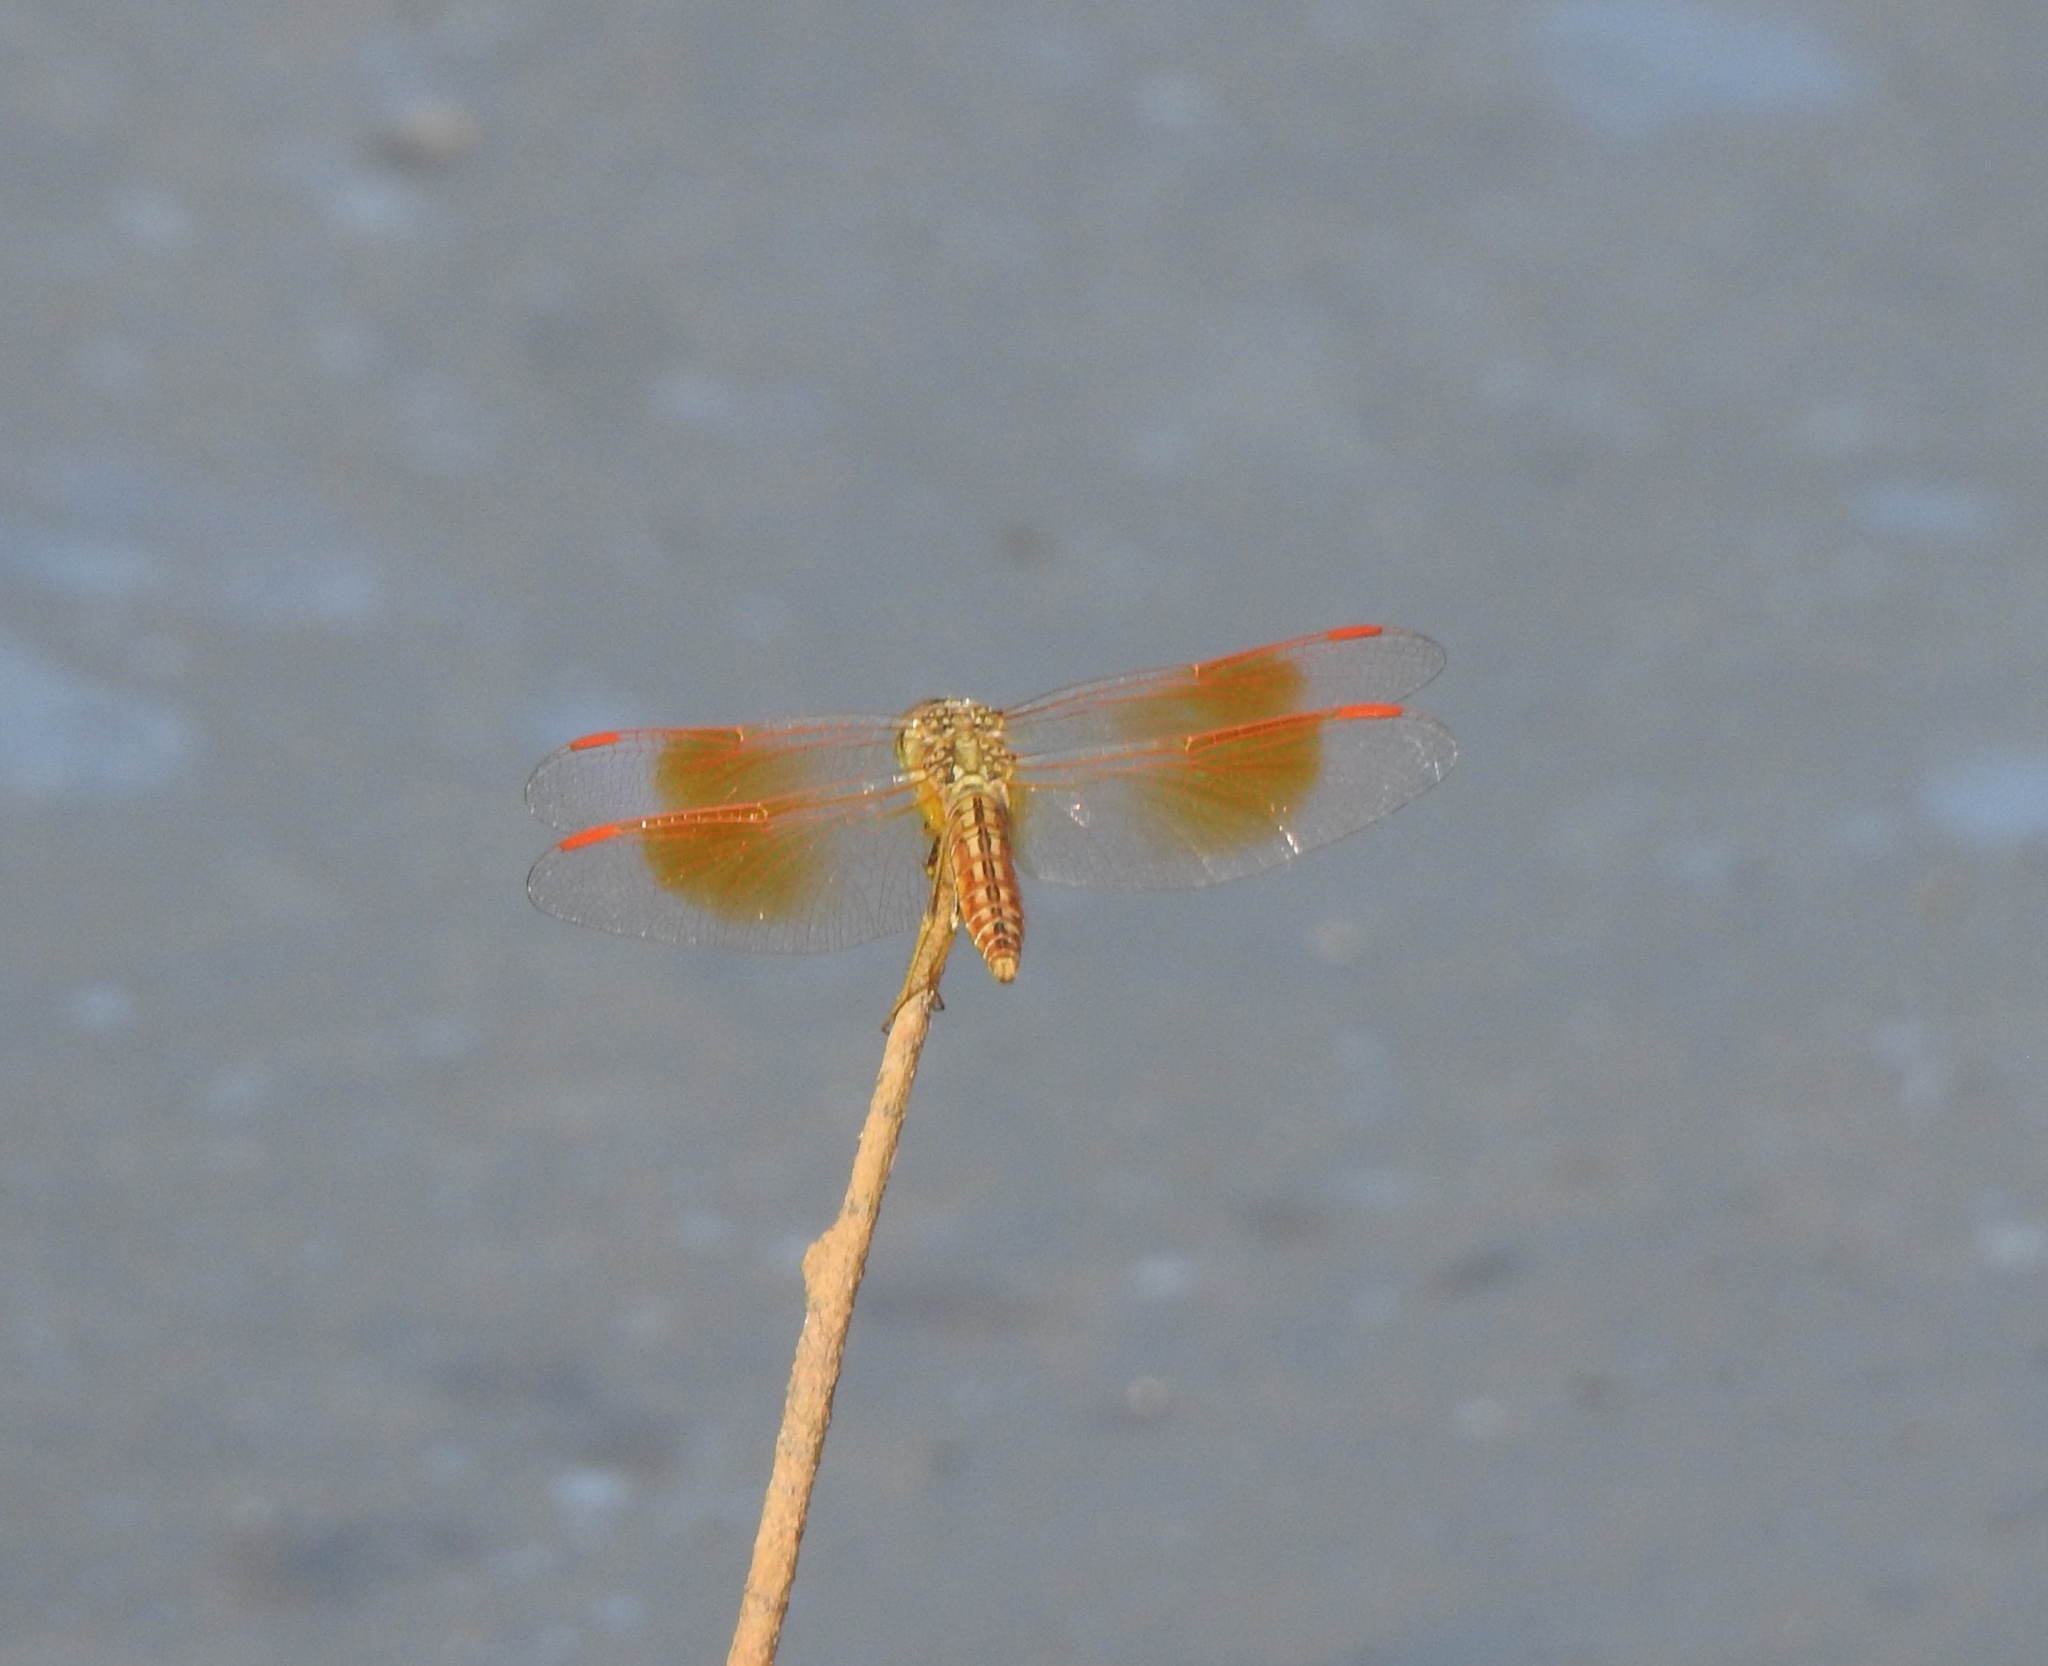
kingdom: Animalia
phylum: Arthropoda
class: Insecta
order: Odonata
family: Libellulidae
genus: Brachythemis
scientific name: Brachythemis contaminata
